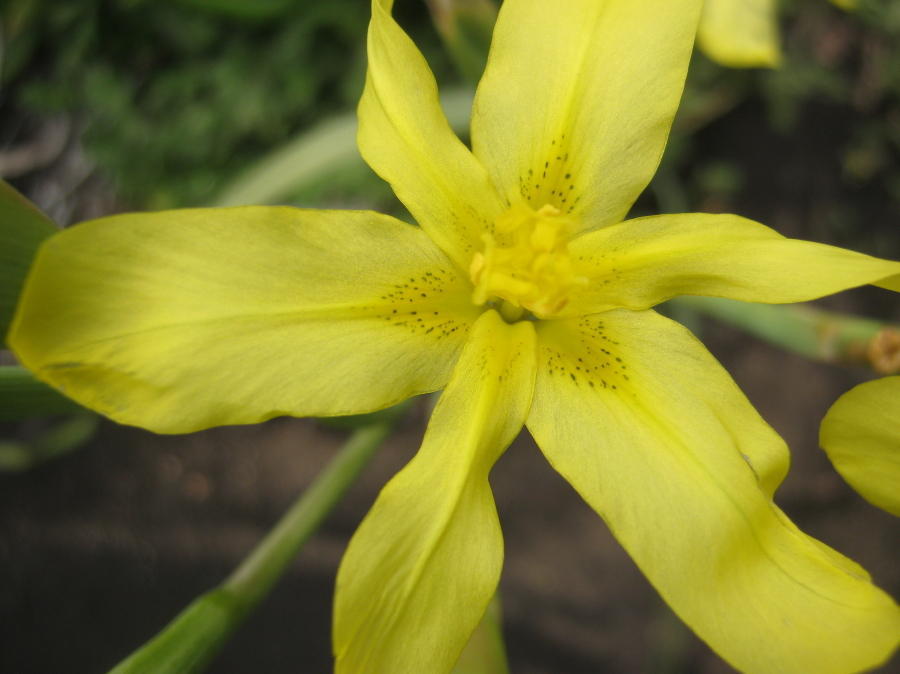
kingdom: Plantae
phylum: Tracheophyta
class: Liliopsida
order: Asparagales
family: Iridaceae
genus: Moraea
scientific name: Moraea cookii
